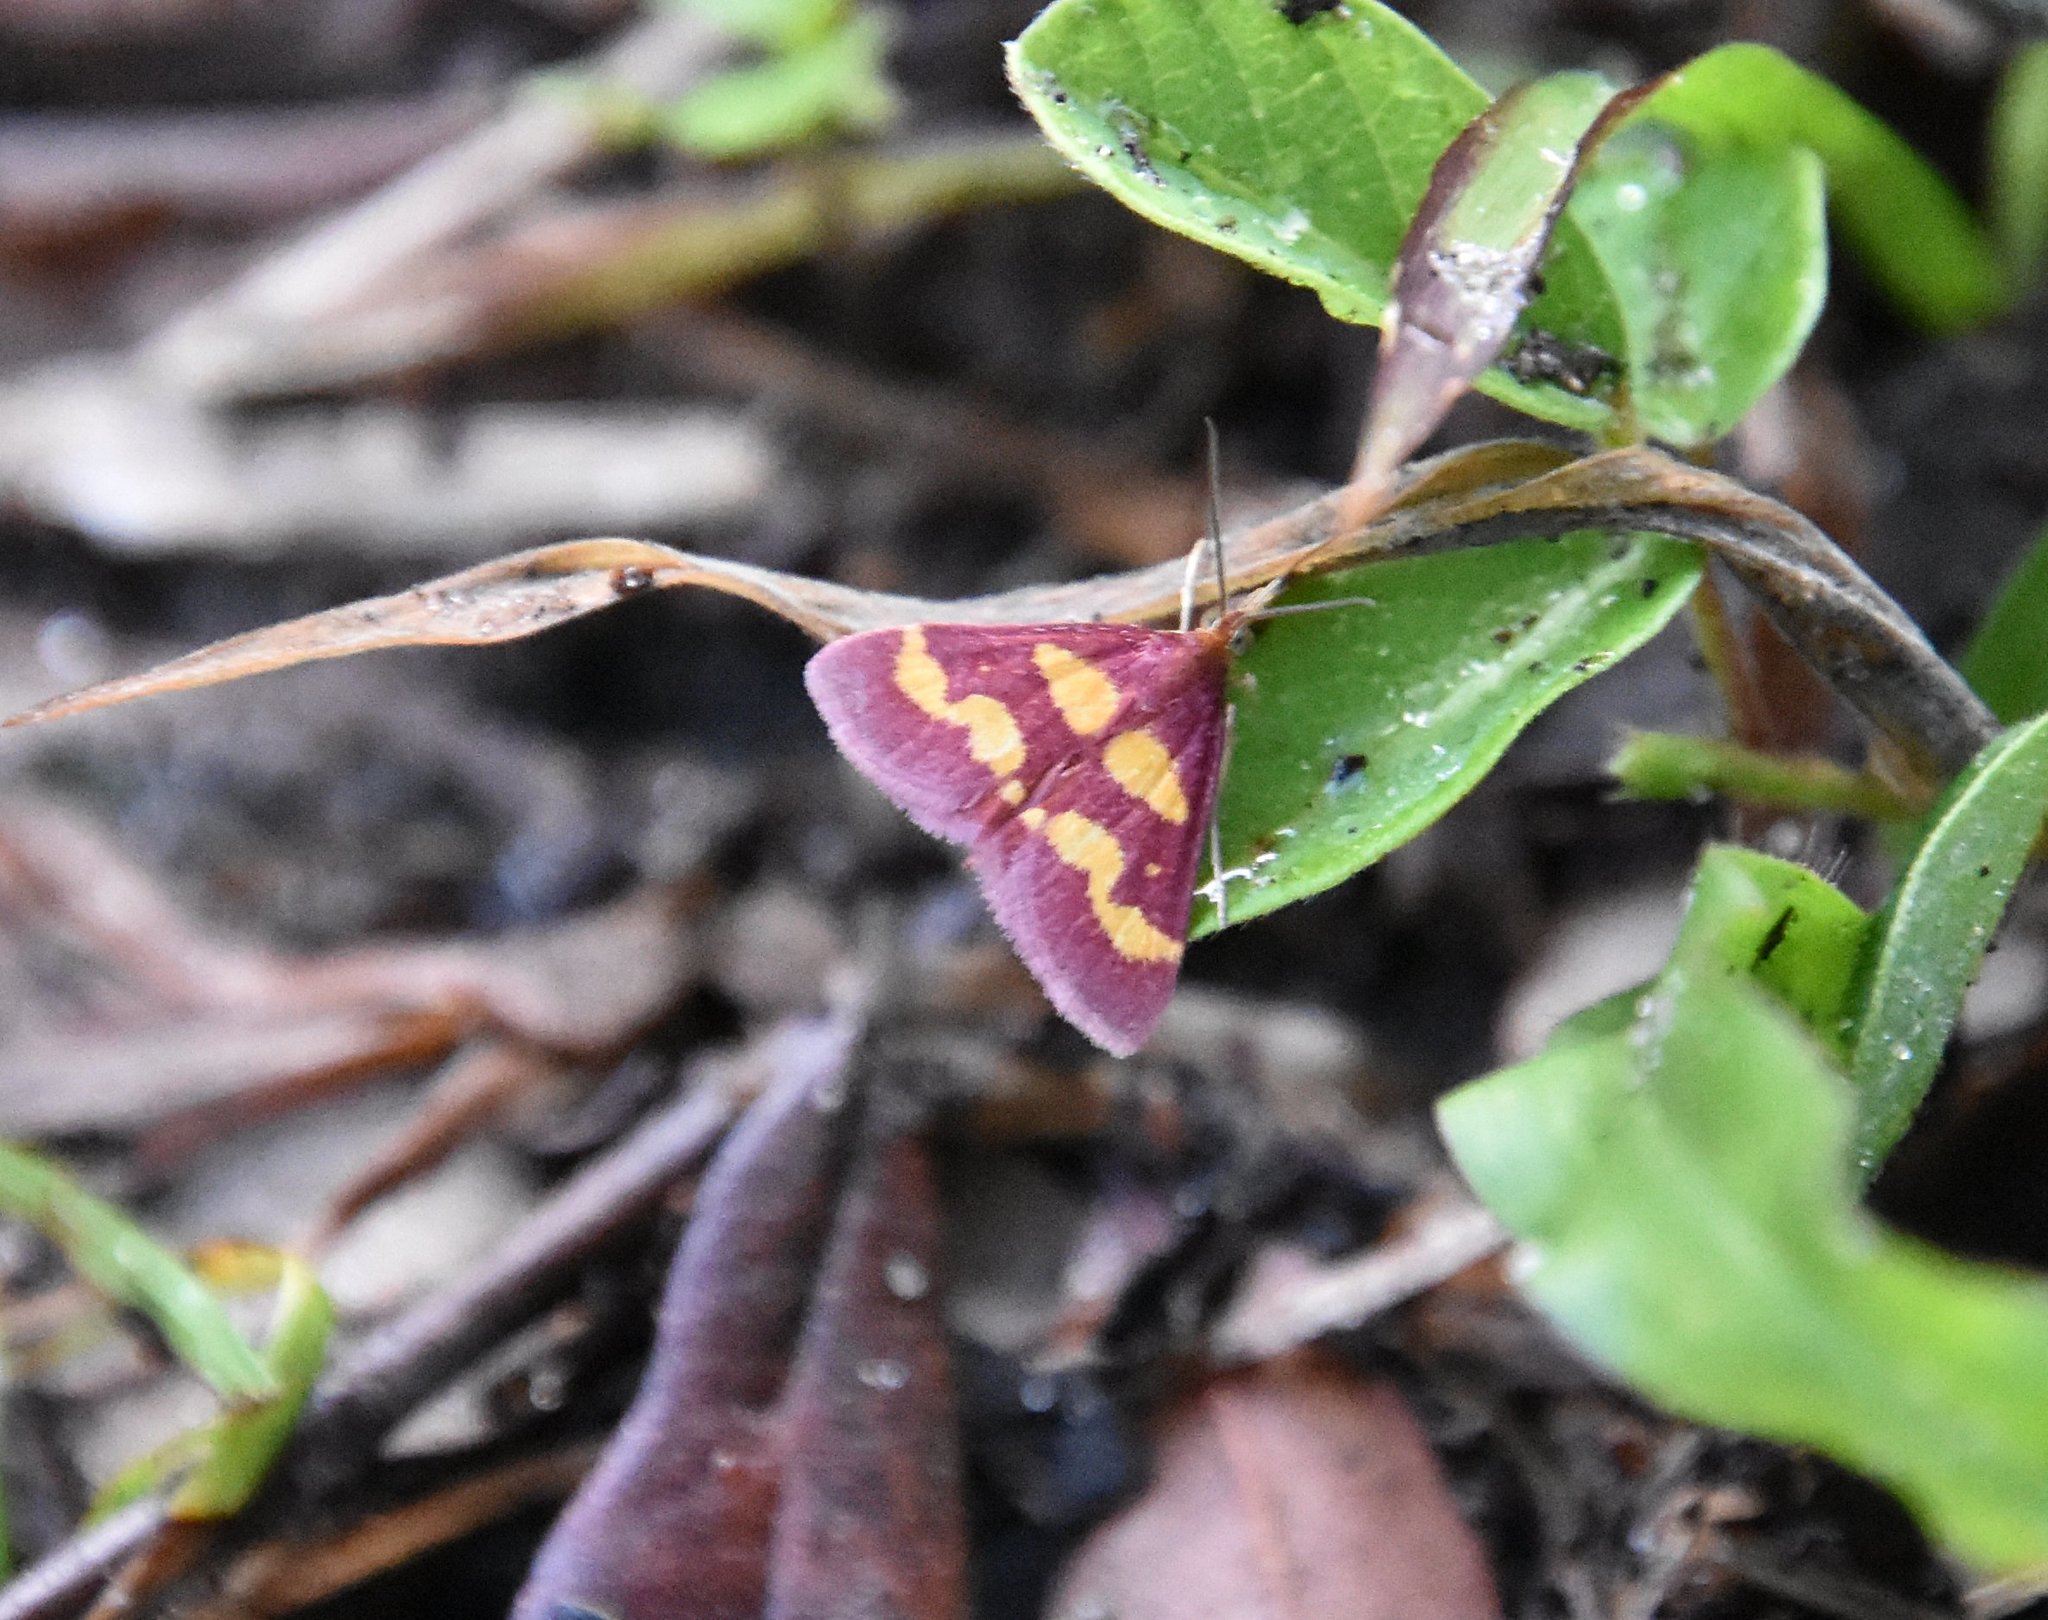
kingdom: Animalia
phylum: Arthropoda
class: Insecta
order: Lepidoptera
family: Crambidae
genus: Pyrausta
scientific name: Pyrausta tyralis
